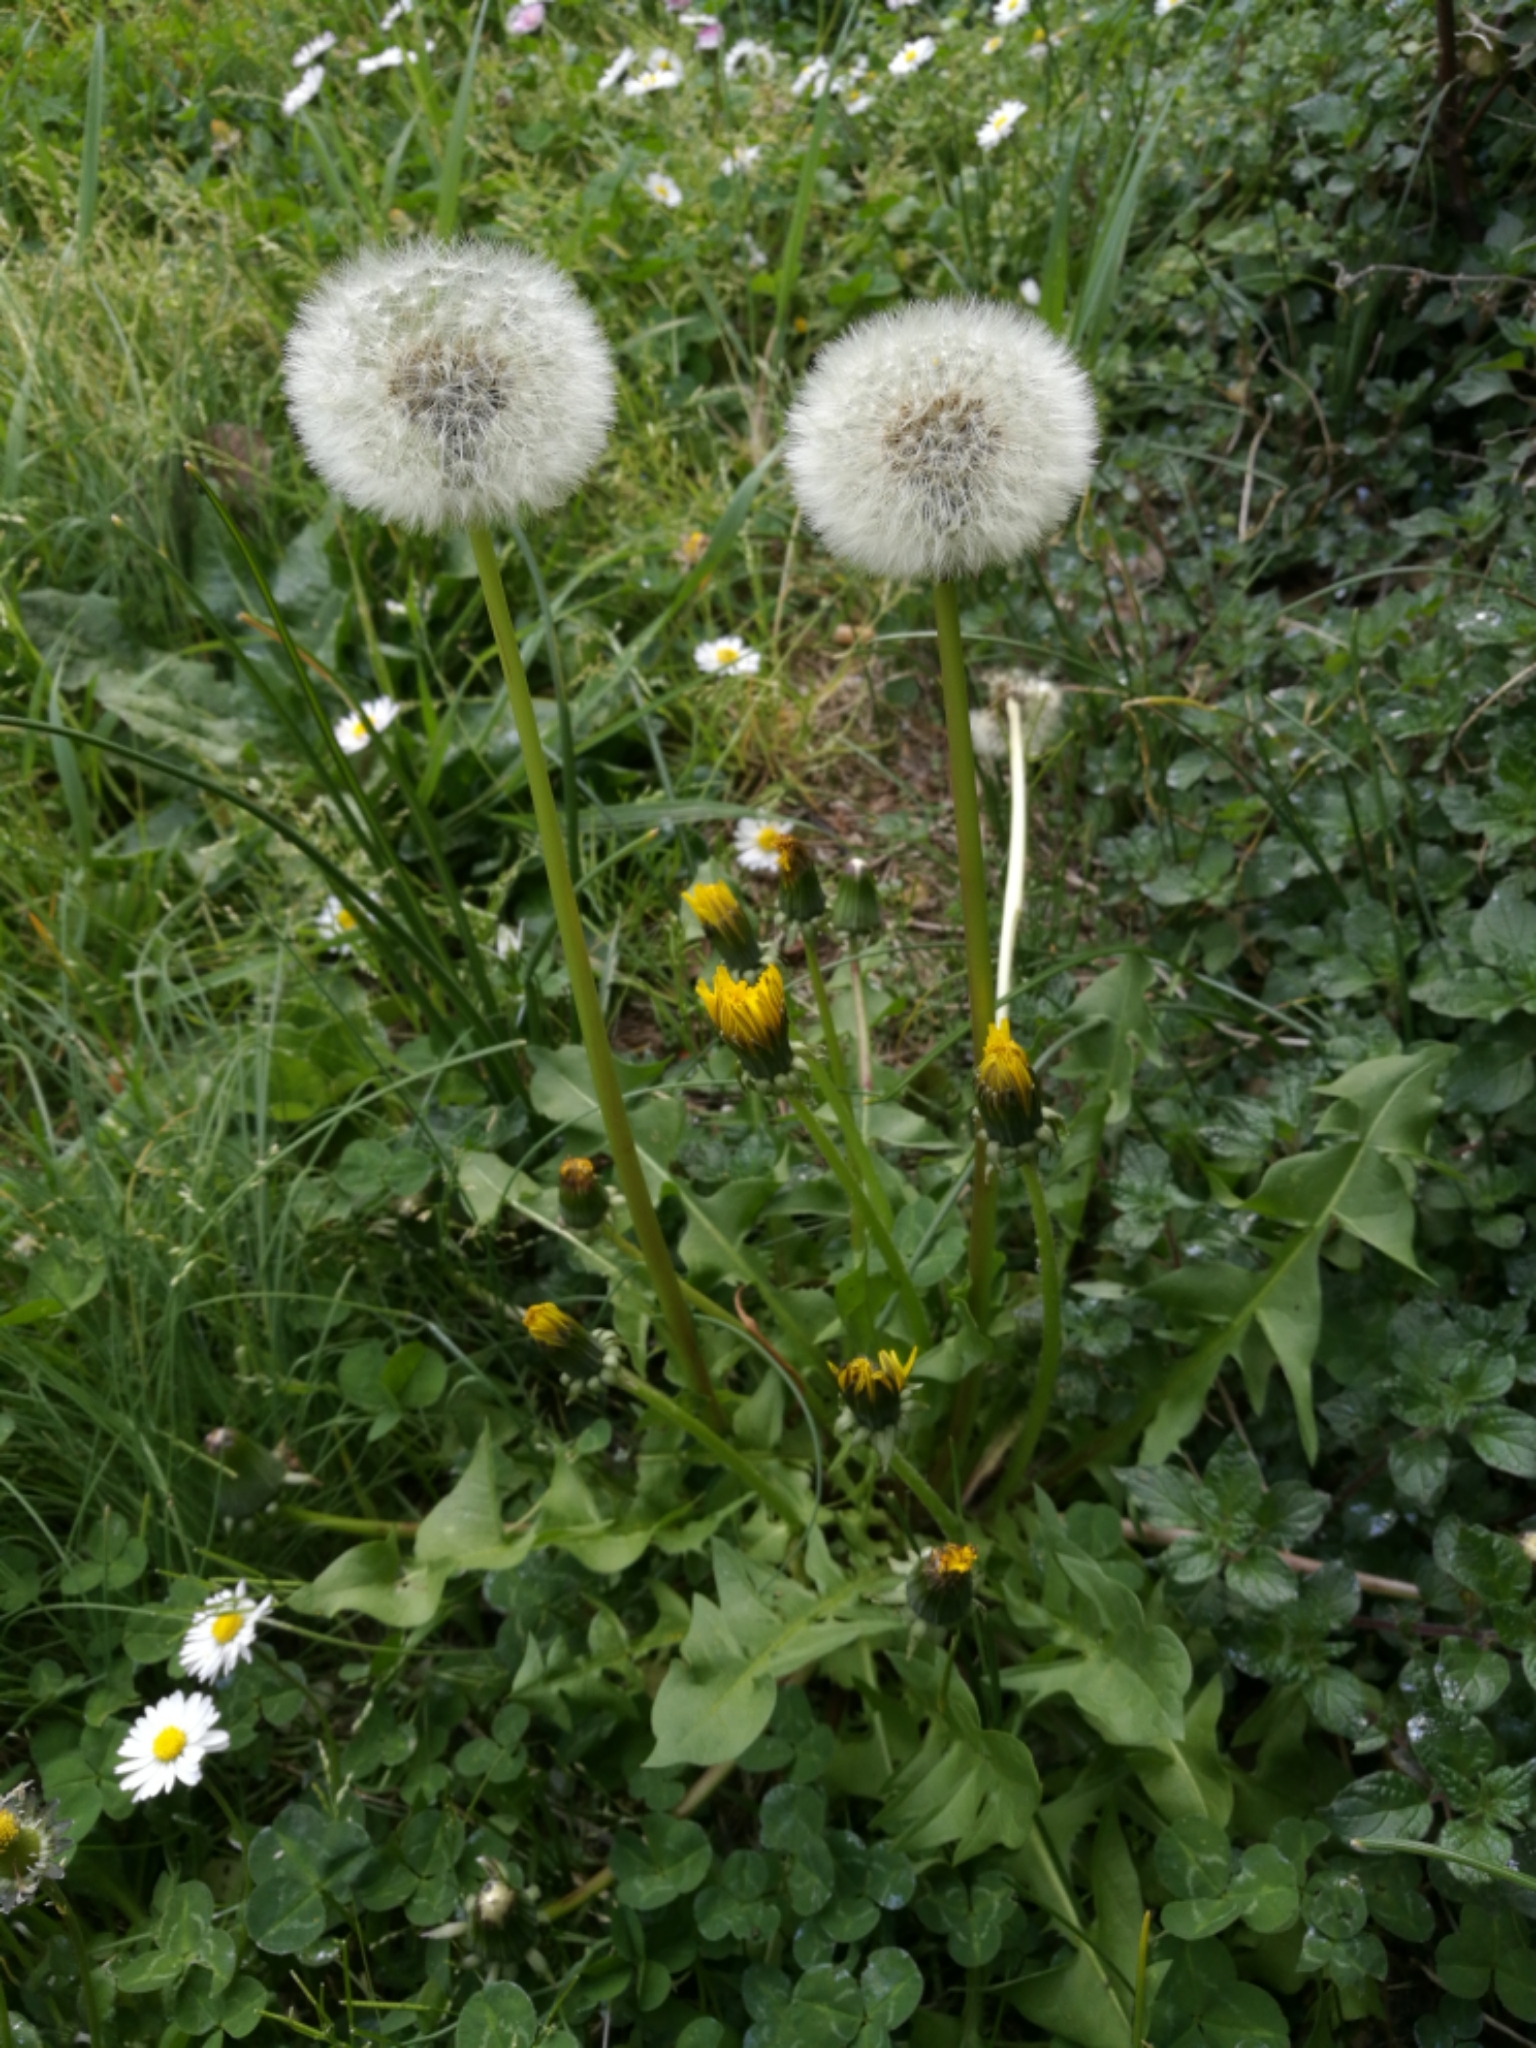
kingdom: Plantae
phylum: Tracheophyta
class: Magnoliopsida
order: Asterales
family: Asteraceae
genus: Taraxacum
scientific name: Taraxacum officinale
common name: Common dandelion
